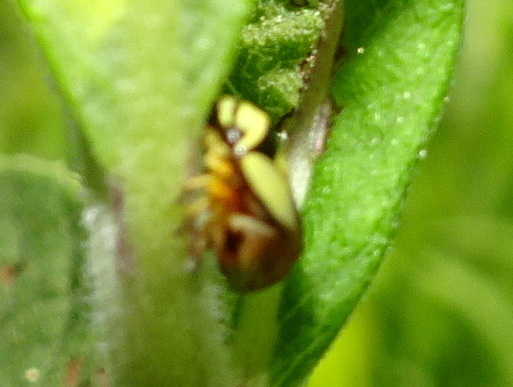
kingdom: Animalia
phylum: Arthropoda
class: Insecta
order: Hemiptera
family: Clastopteridae
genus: Clastoptera
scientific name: Clastoptera proteus
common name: Dogwood spittlebug
